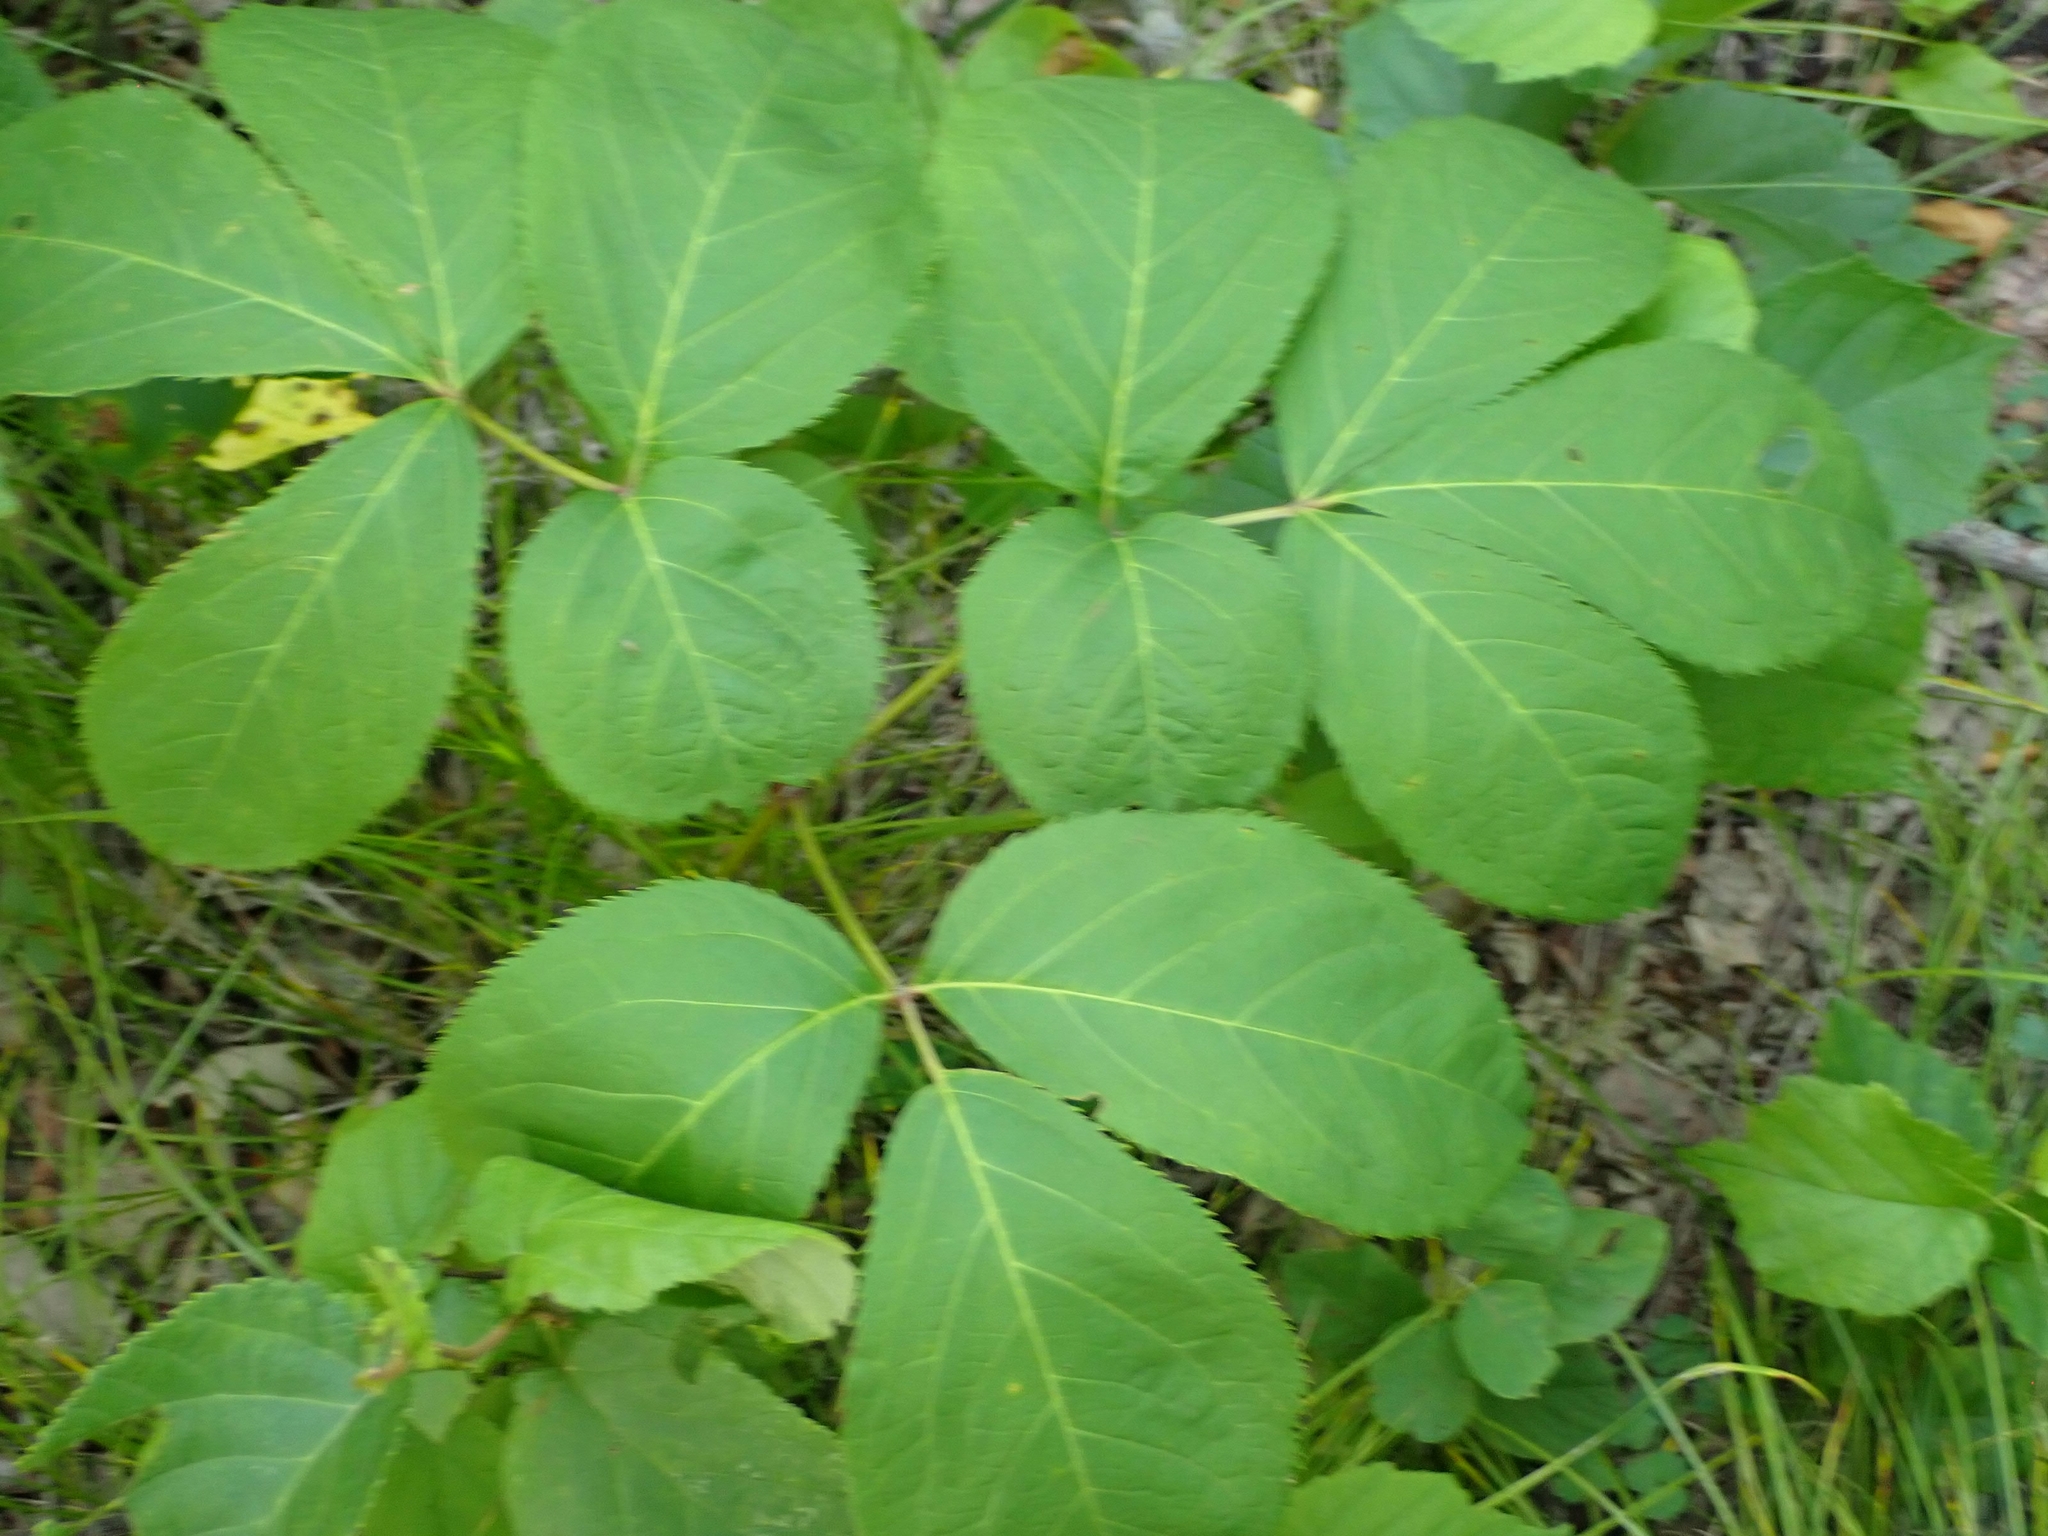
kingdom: Plantae
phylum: Tracheophyta
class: Magnoliopsida
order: Apiales
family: Araliaceae
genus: Aralia
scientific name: Aralia nudicaulis
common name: Wild sarsaparilla
